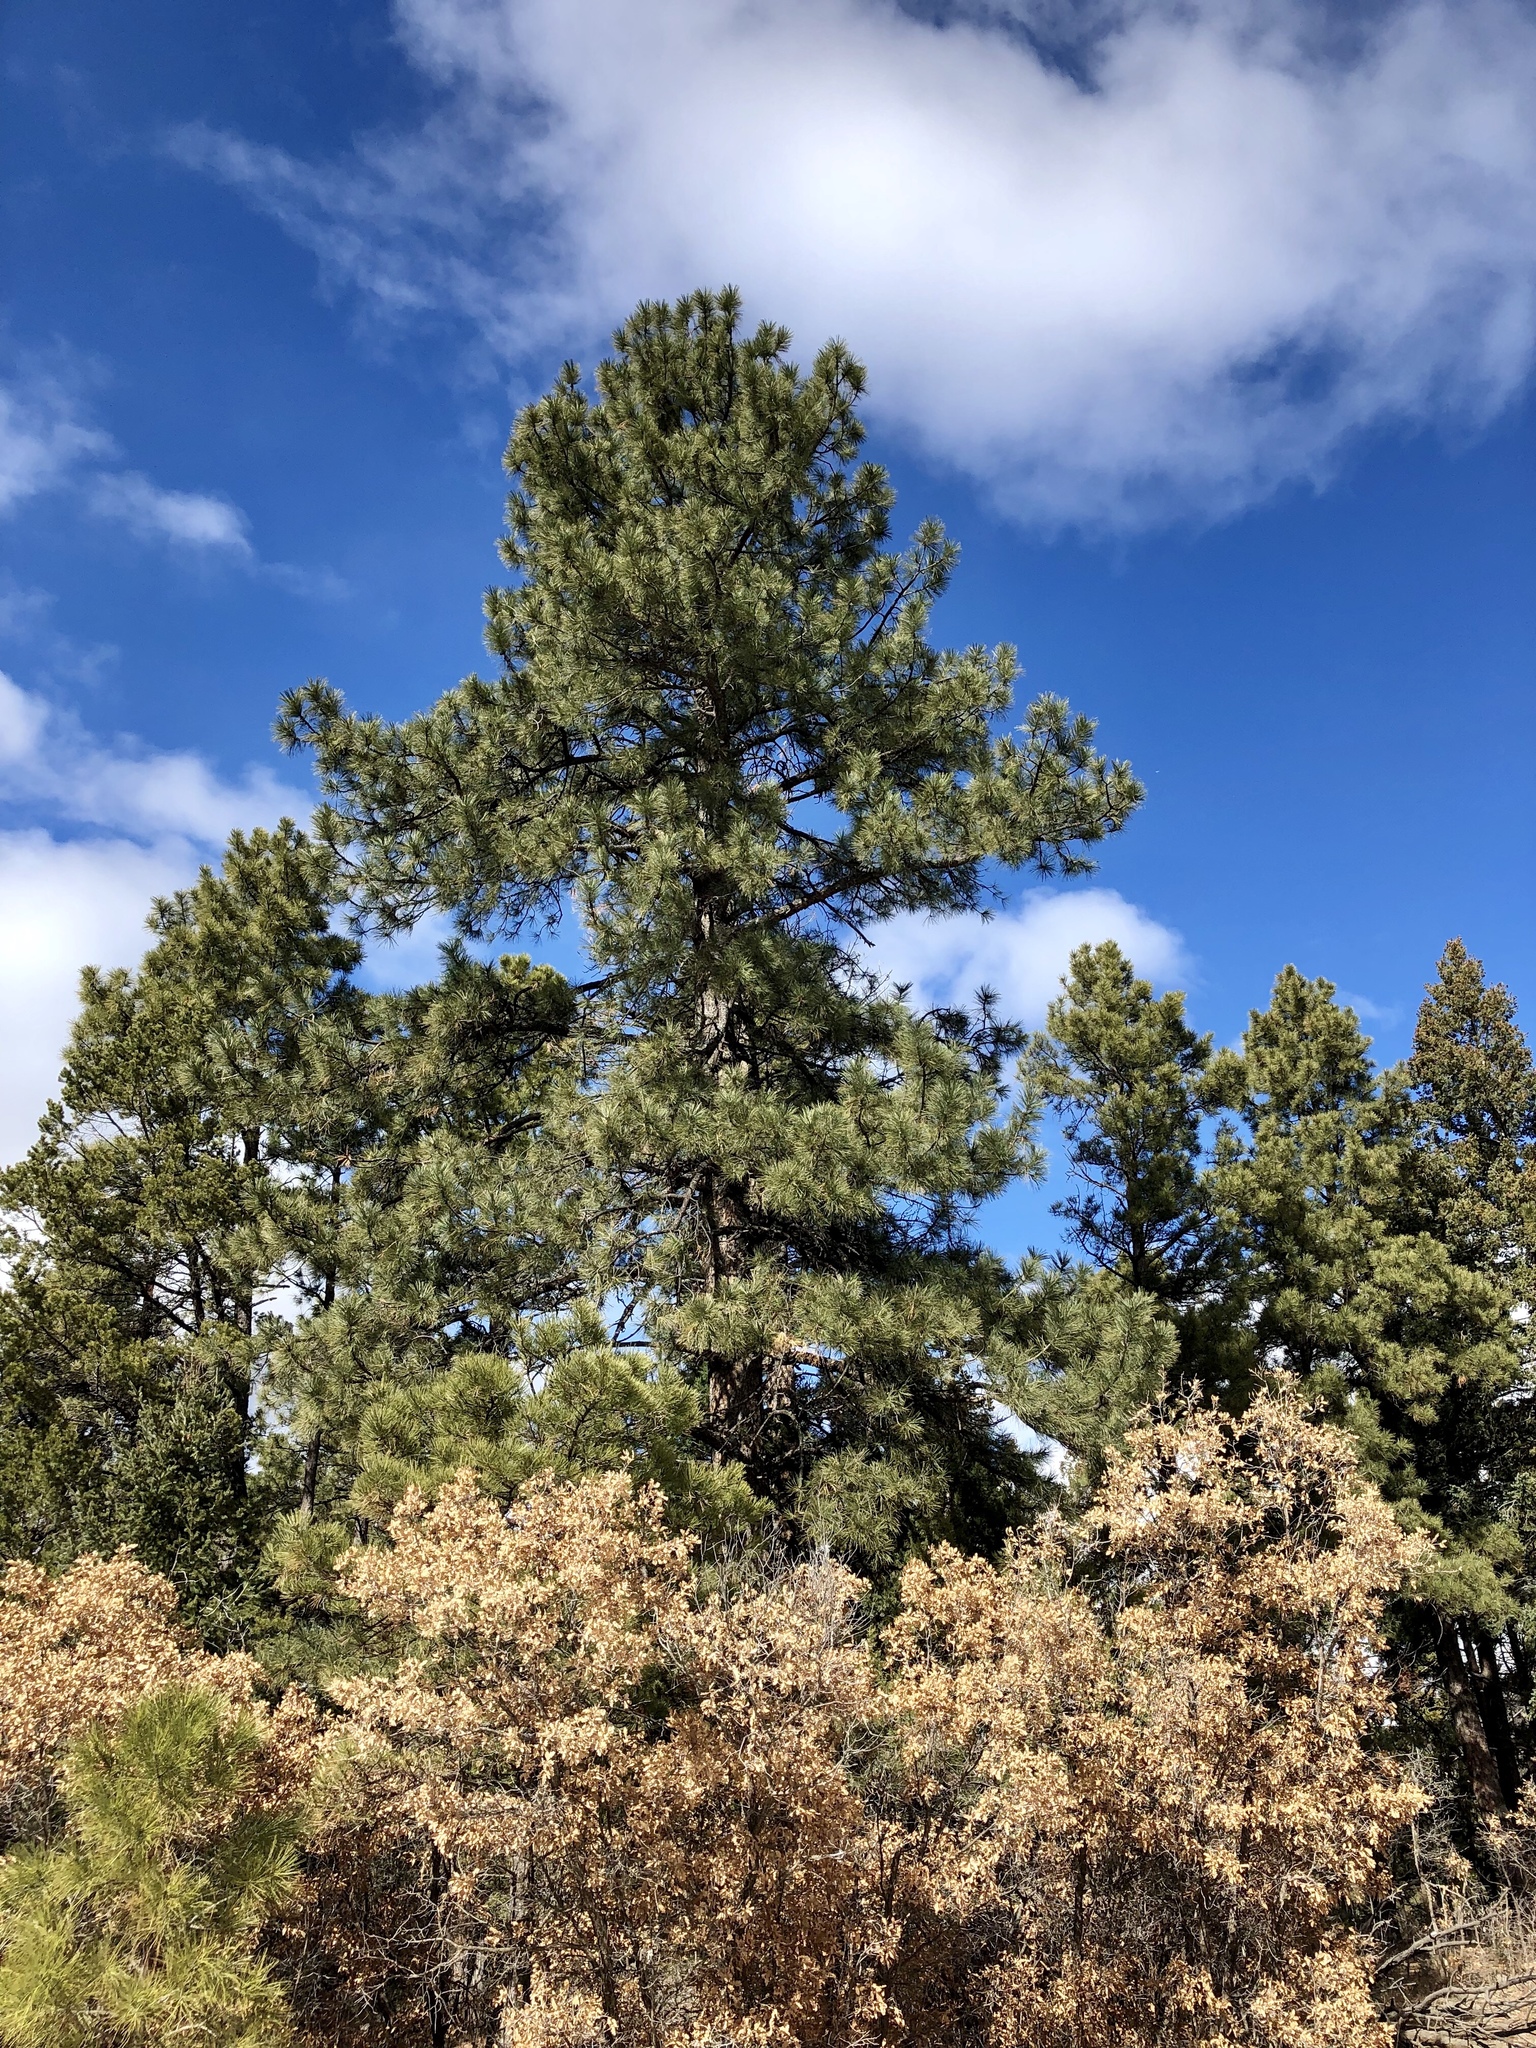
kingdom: Plantae
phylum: Tracheophyta
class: Pinopsida
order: Pinales
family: Pinaceae
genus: Pinus
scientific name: Pinus ponderosa
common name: Western yellow-pine
